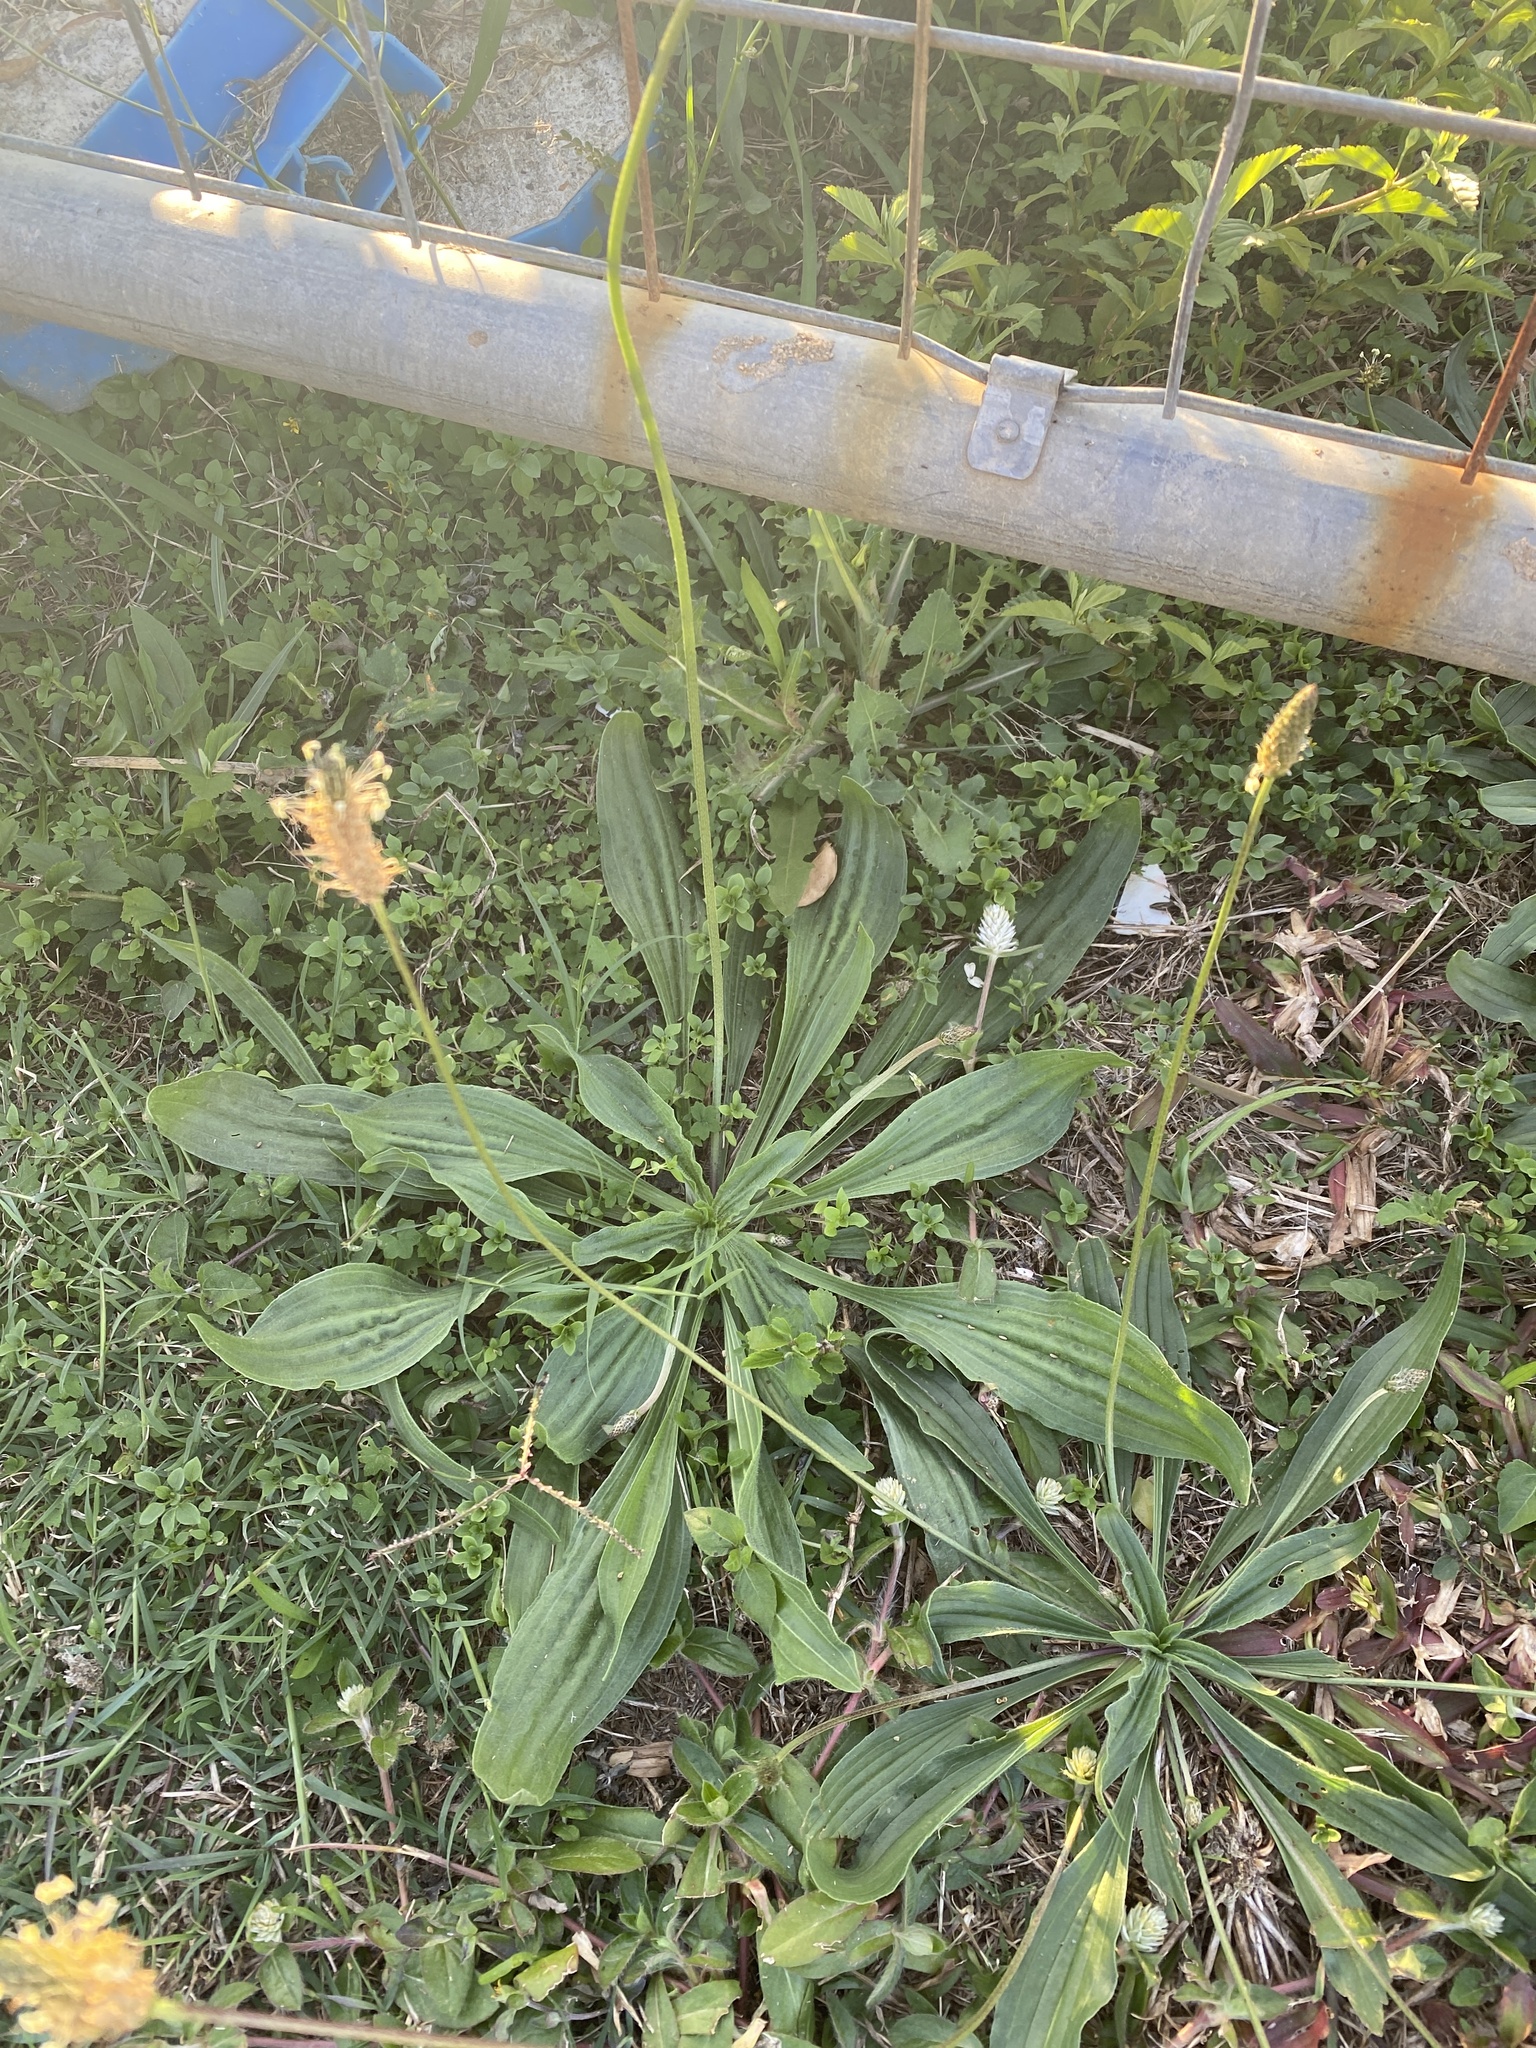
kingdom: Plantae
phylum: Tracheophyta
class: Magnoliopsida
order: Lamiales
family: Plantaginaceae
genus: Plantago
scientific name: Plantago lanceolata
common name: Ribwort plantain
